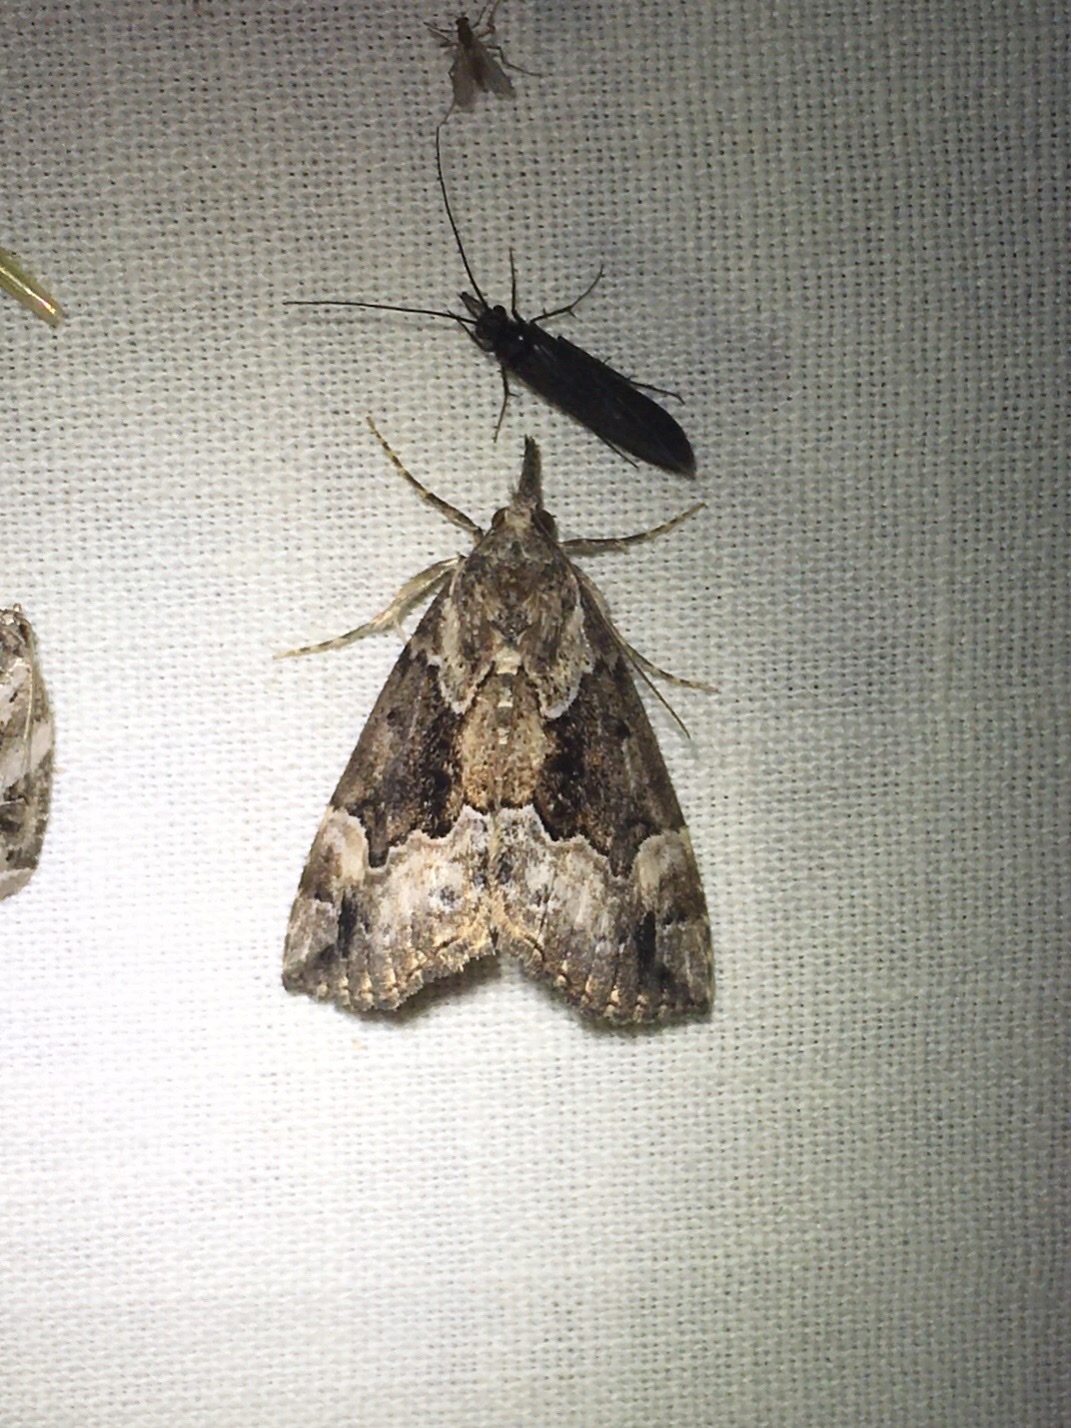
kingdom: Animalia
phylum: Arthropoda
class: Insecta
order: Lepidoptera
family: Erebidae
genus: Hypena
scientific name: Hypena palparia
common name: Mottled bomolocha moth
